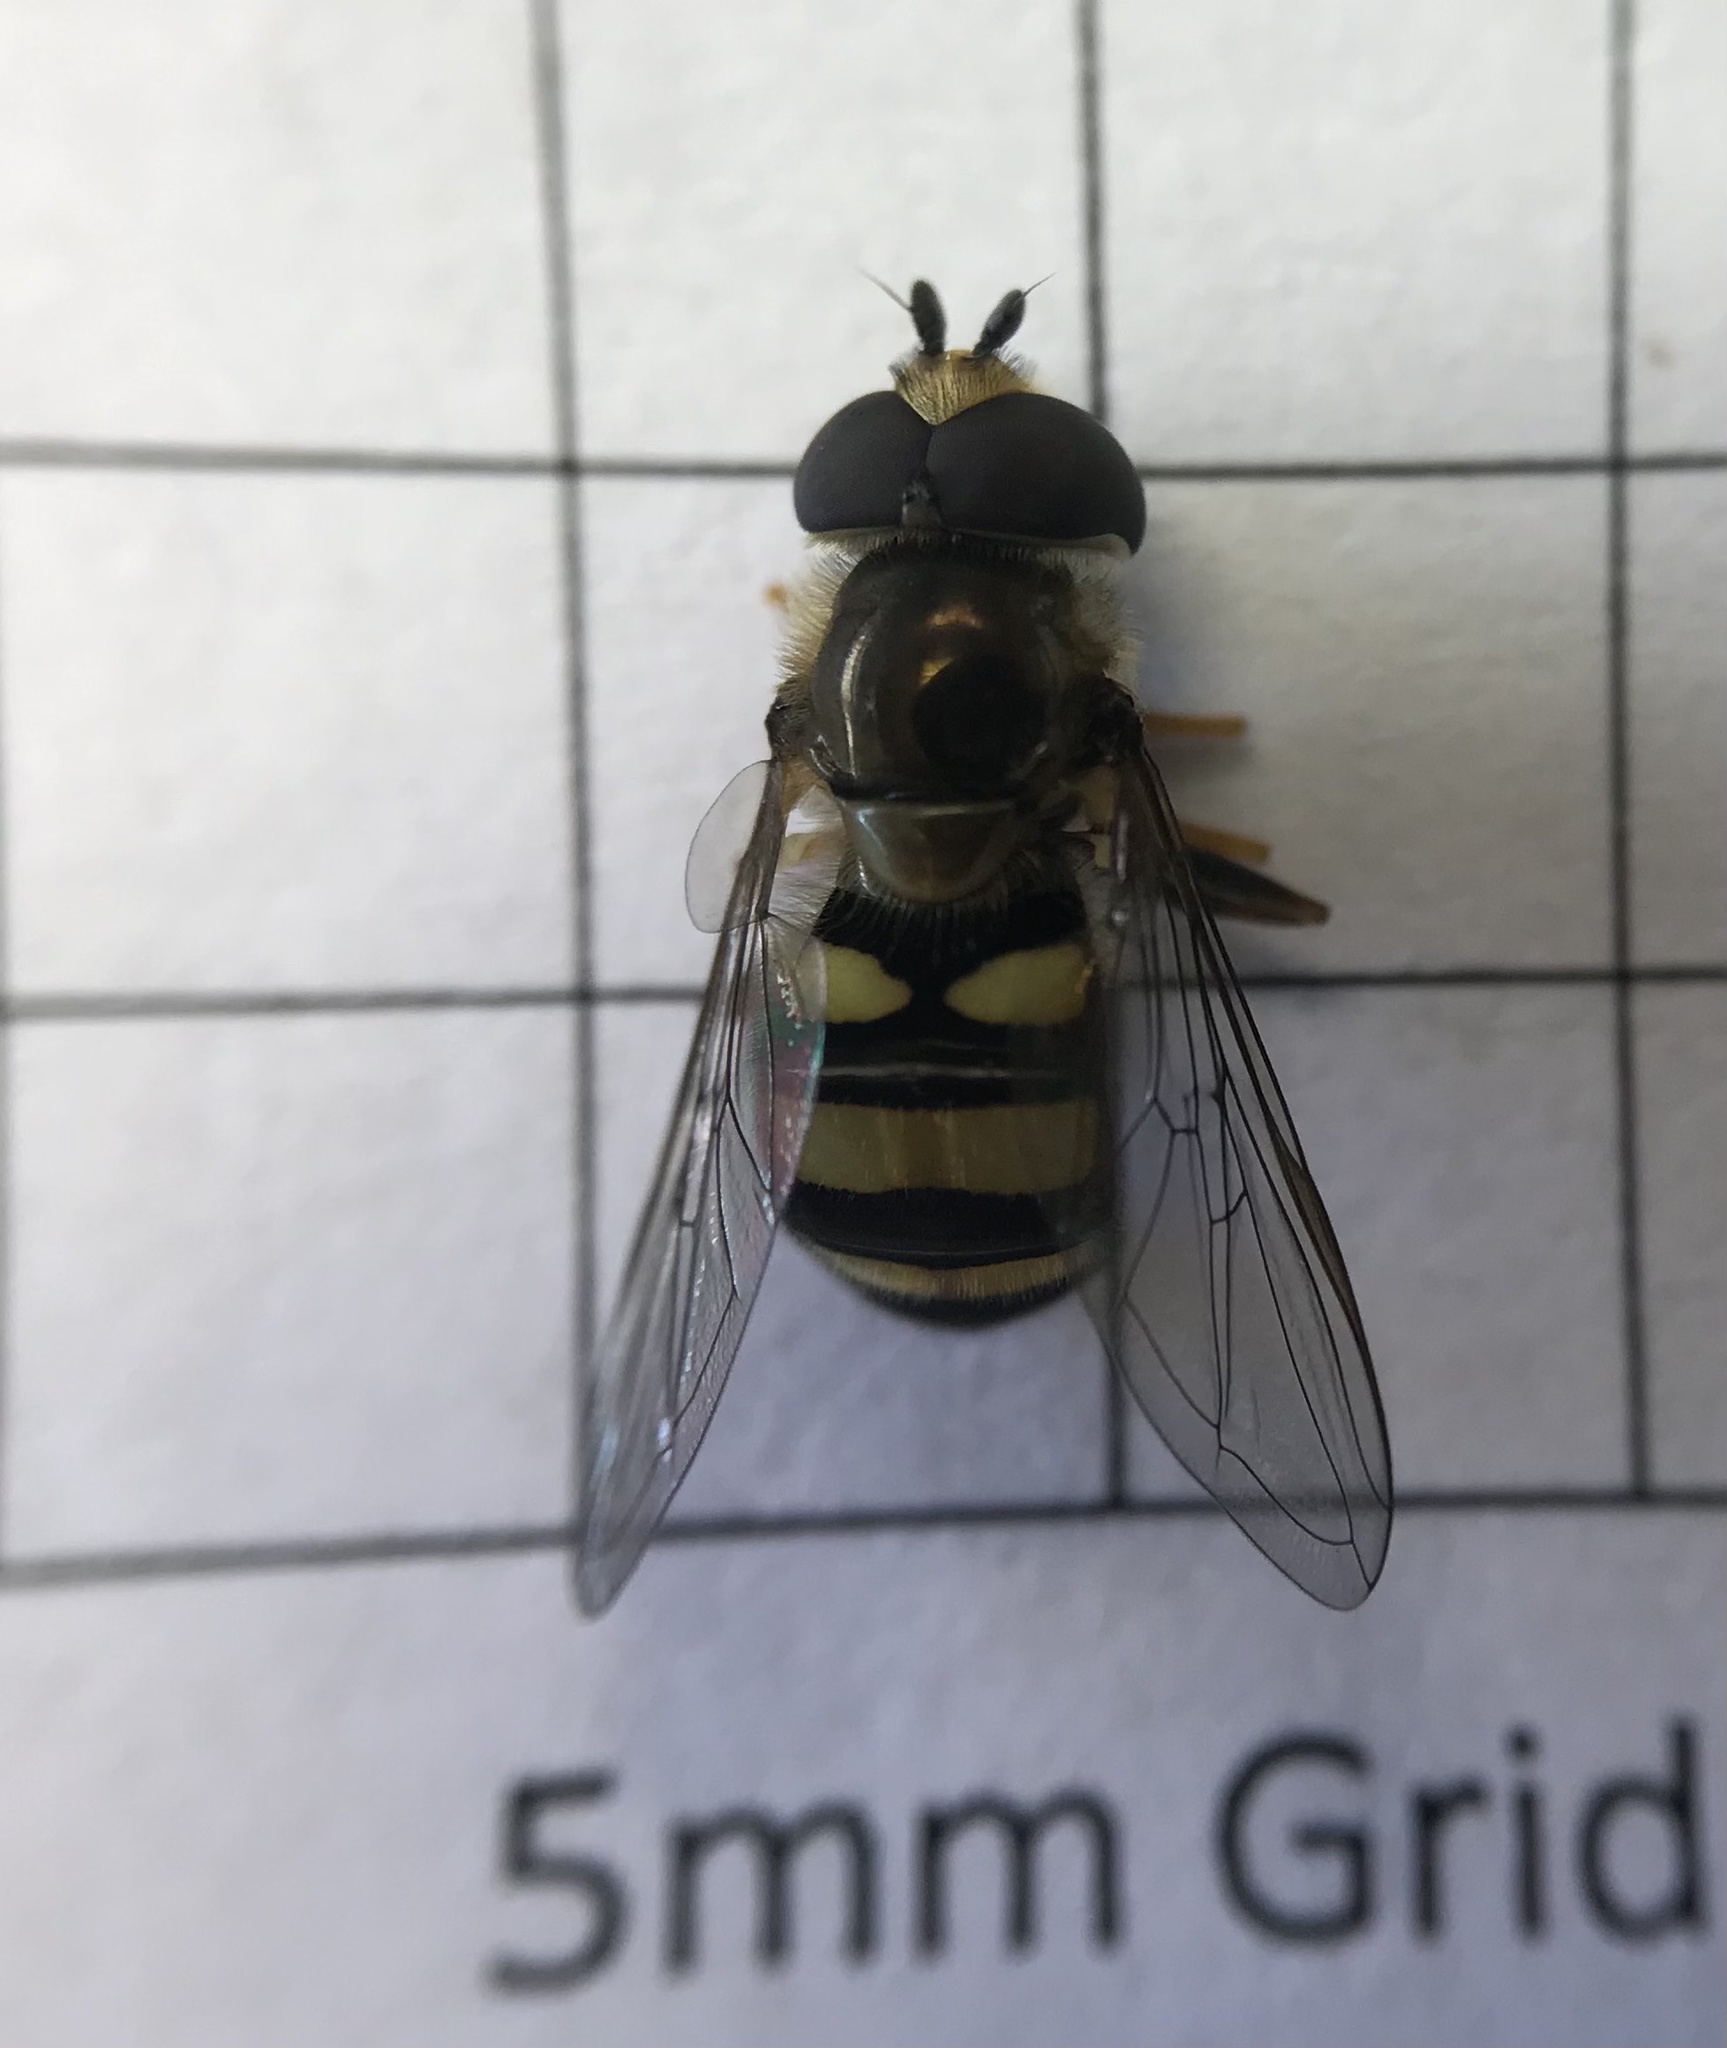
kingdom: Animalia
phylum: Arthropoda
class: Insecta
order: Diptera
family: Syrphidae
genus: Eupeodes
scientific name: Eupeodes
